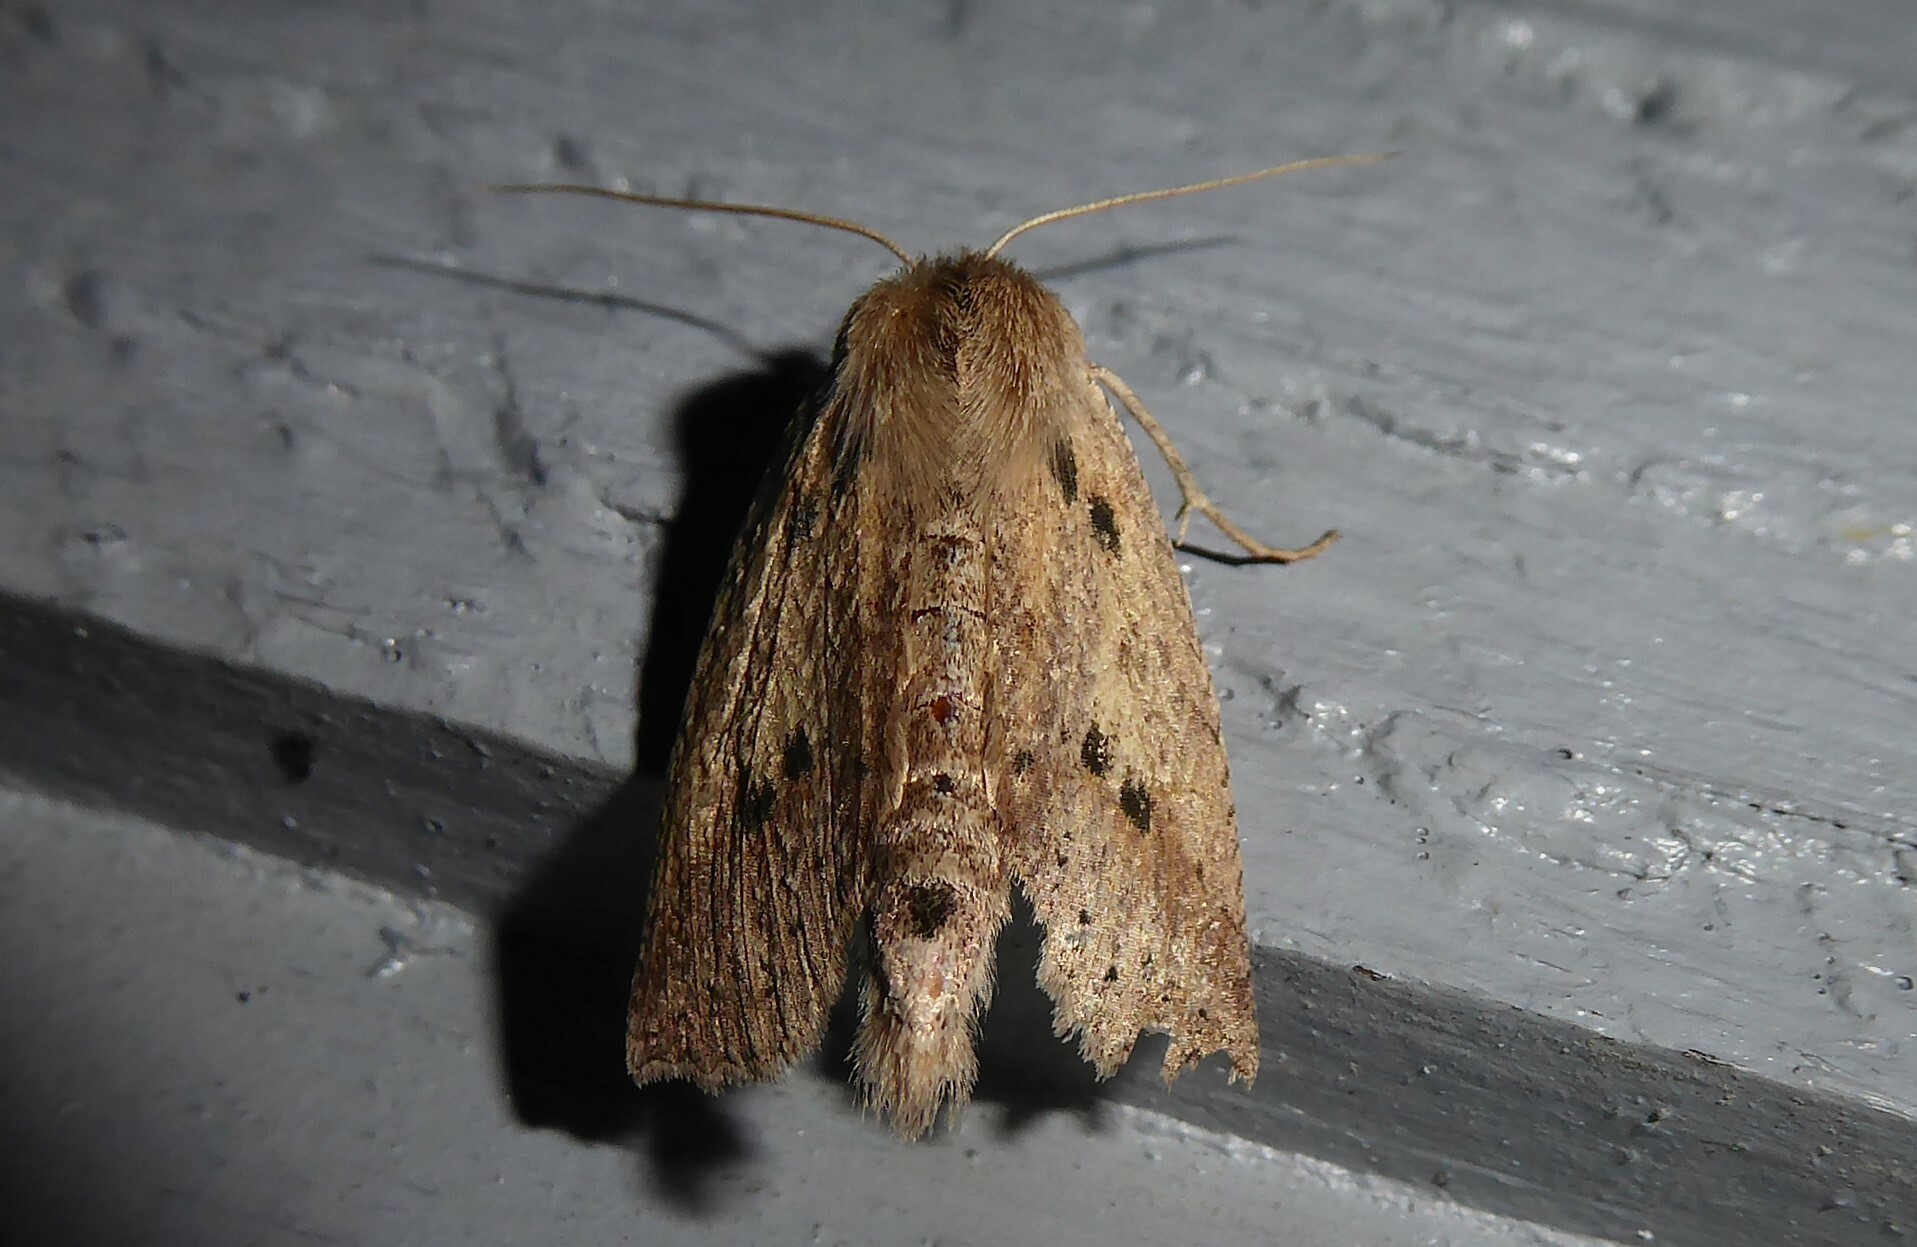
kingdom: Animalia
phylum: Arthropoda
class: Insecta
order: Lepidoptera
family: Geometridae
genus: Declana
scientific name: Declana leptomera
